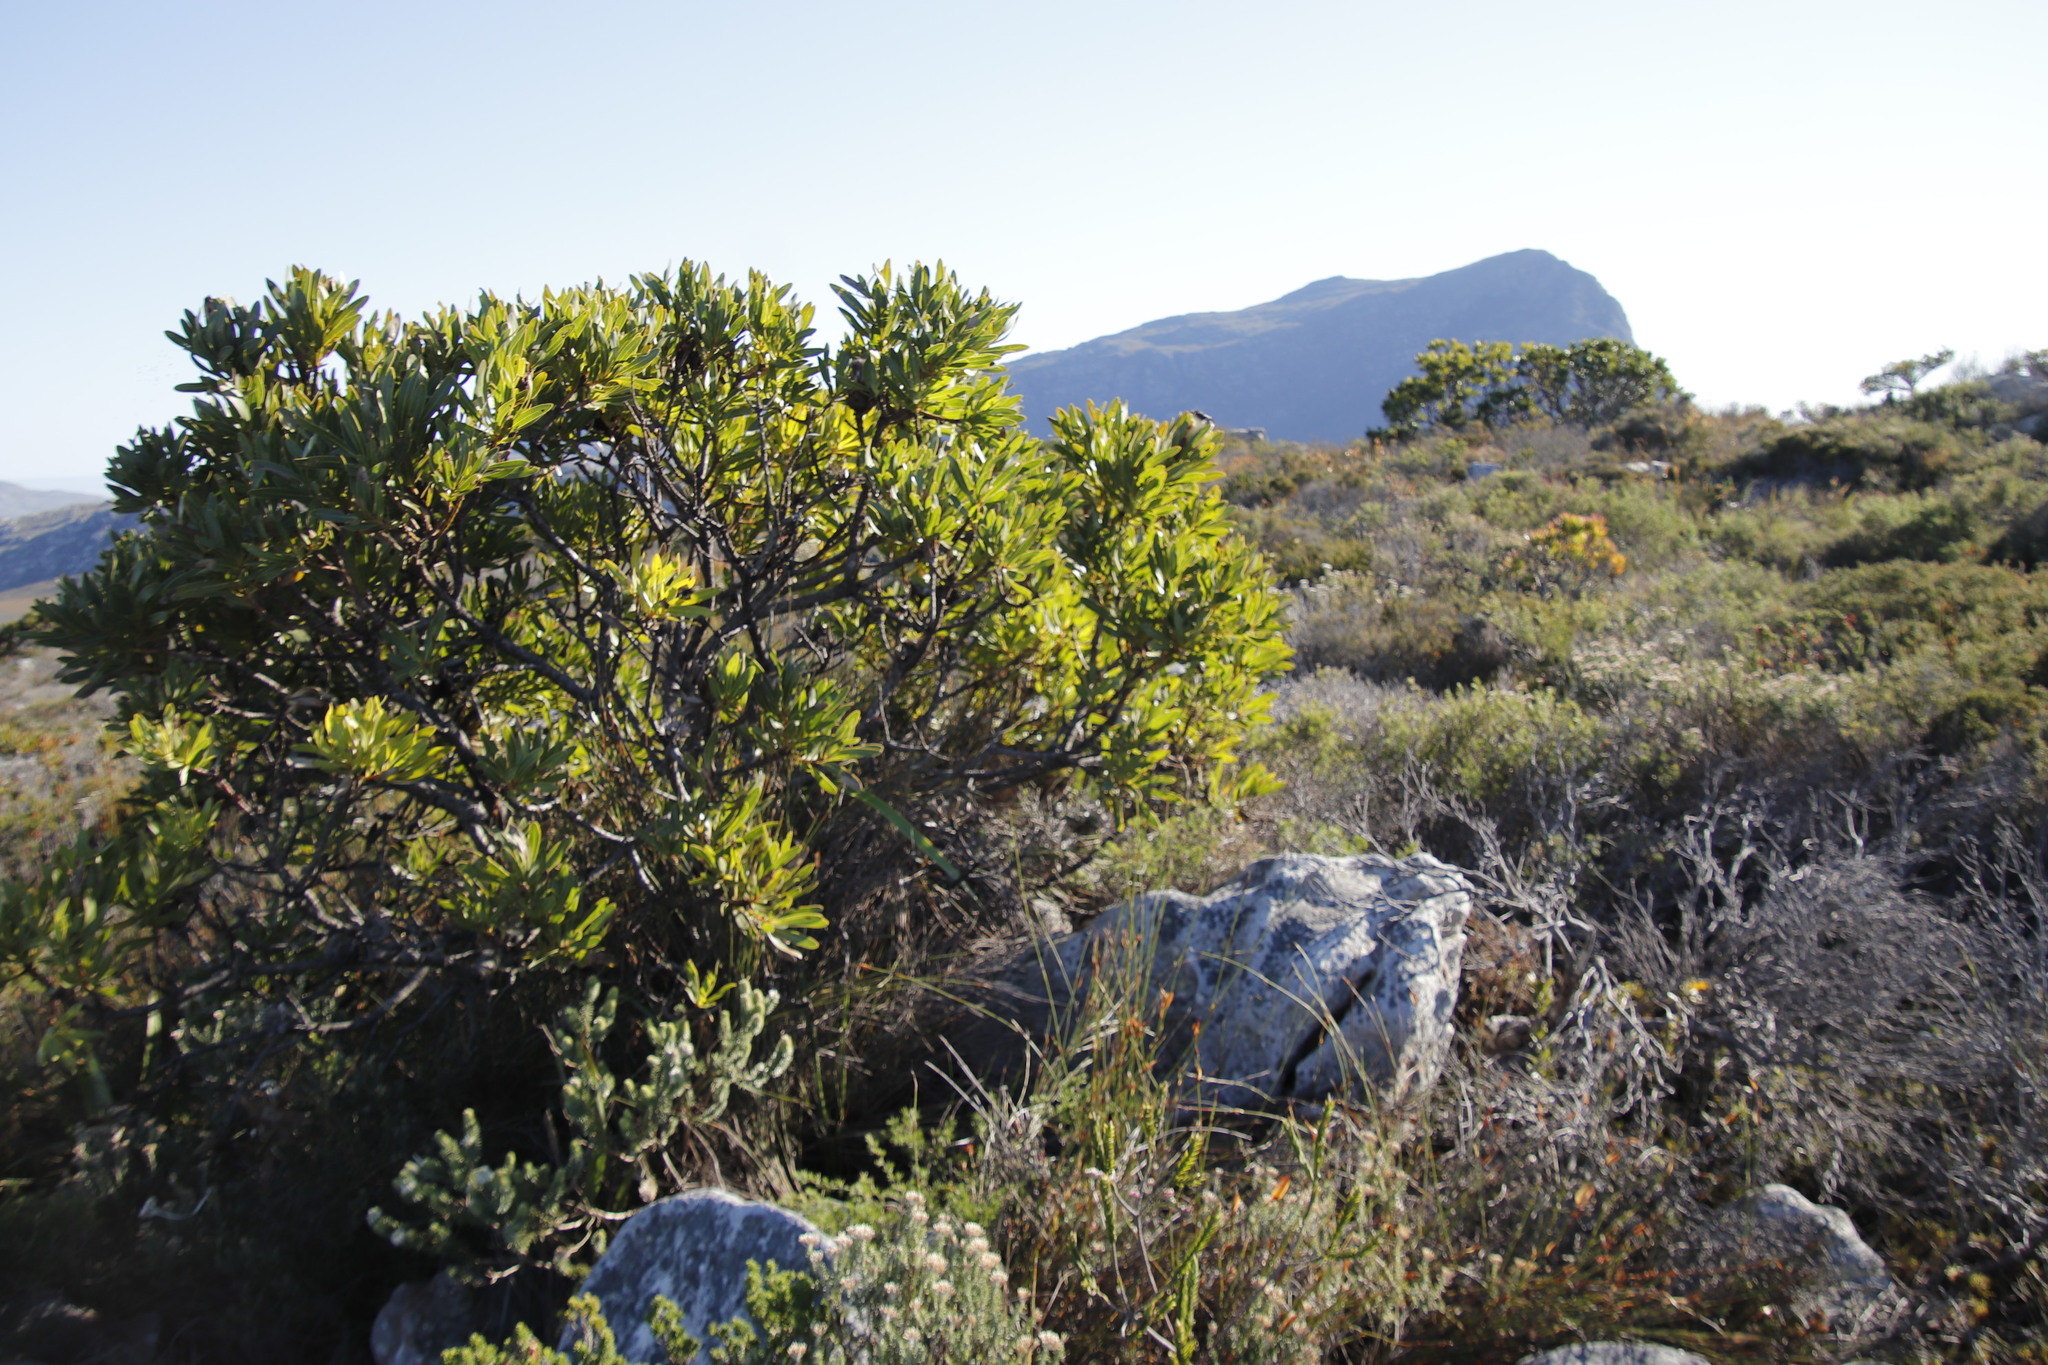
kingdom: Plantae
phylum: Tracheophyta
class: Magnoliopsida
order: Proteales
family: Proteaceae
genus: Protea
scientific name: Protea lepidocarpodendron
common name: Black-bearded protea
